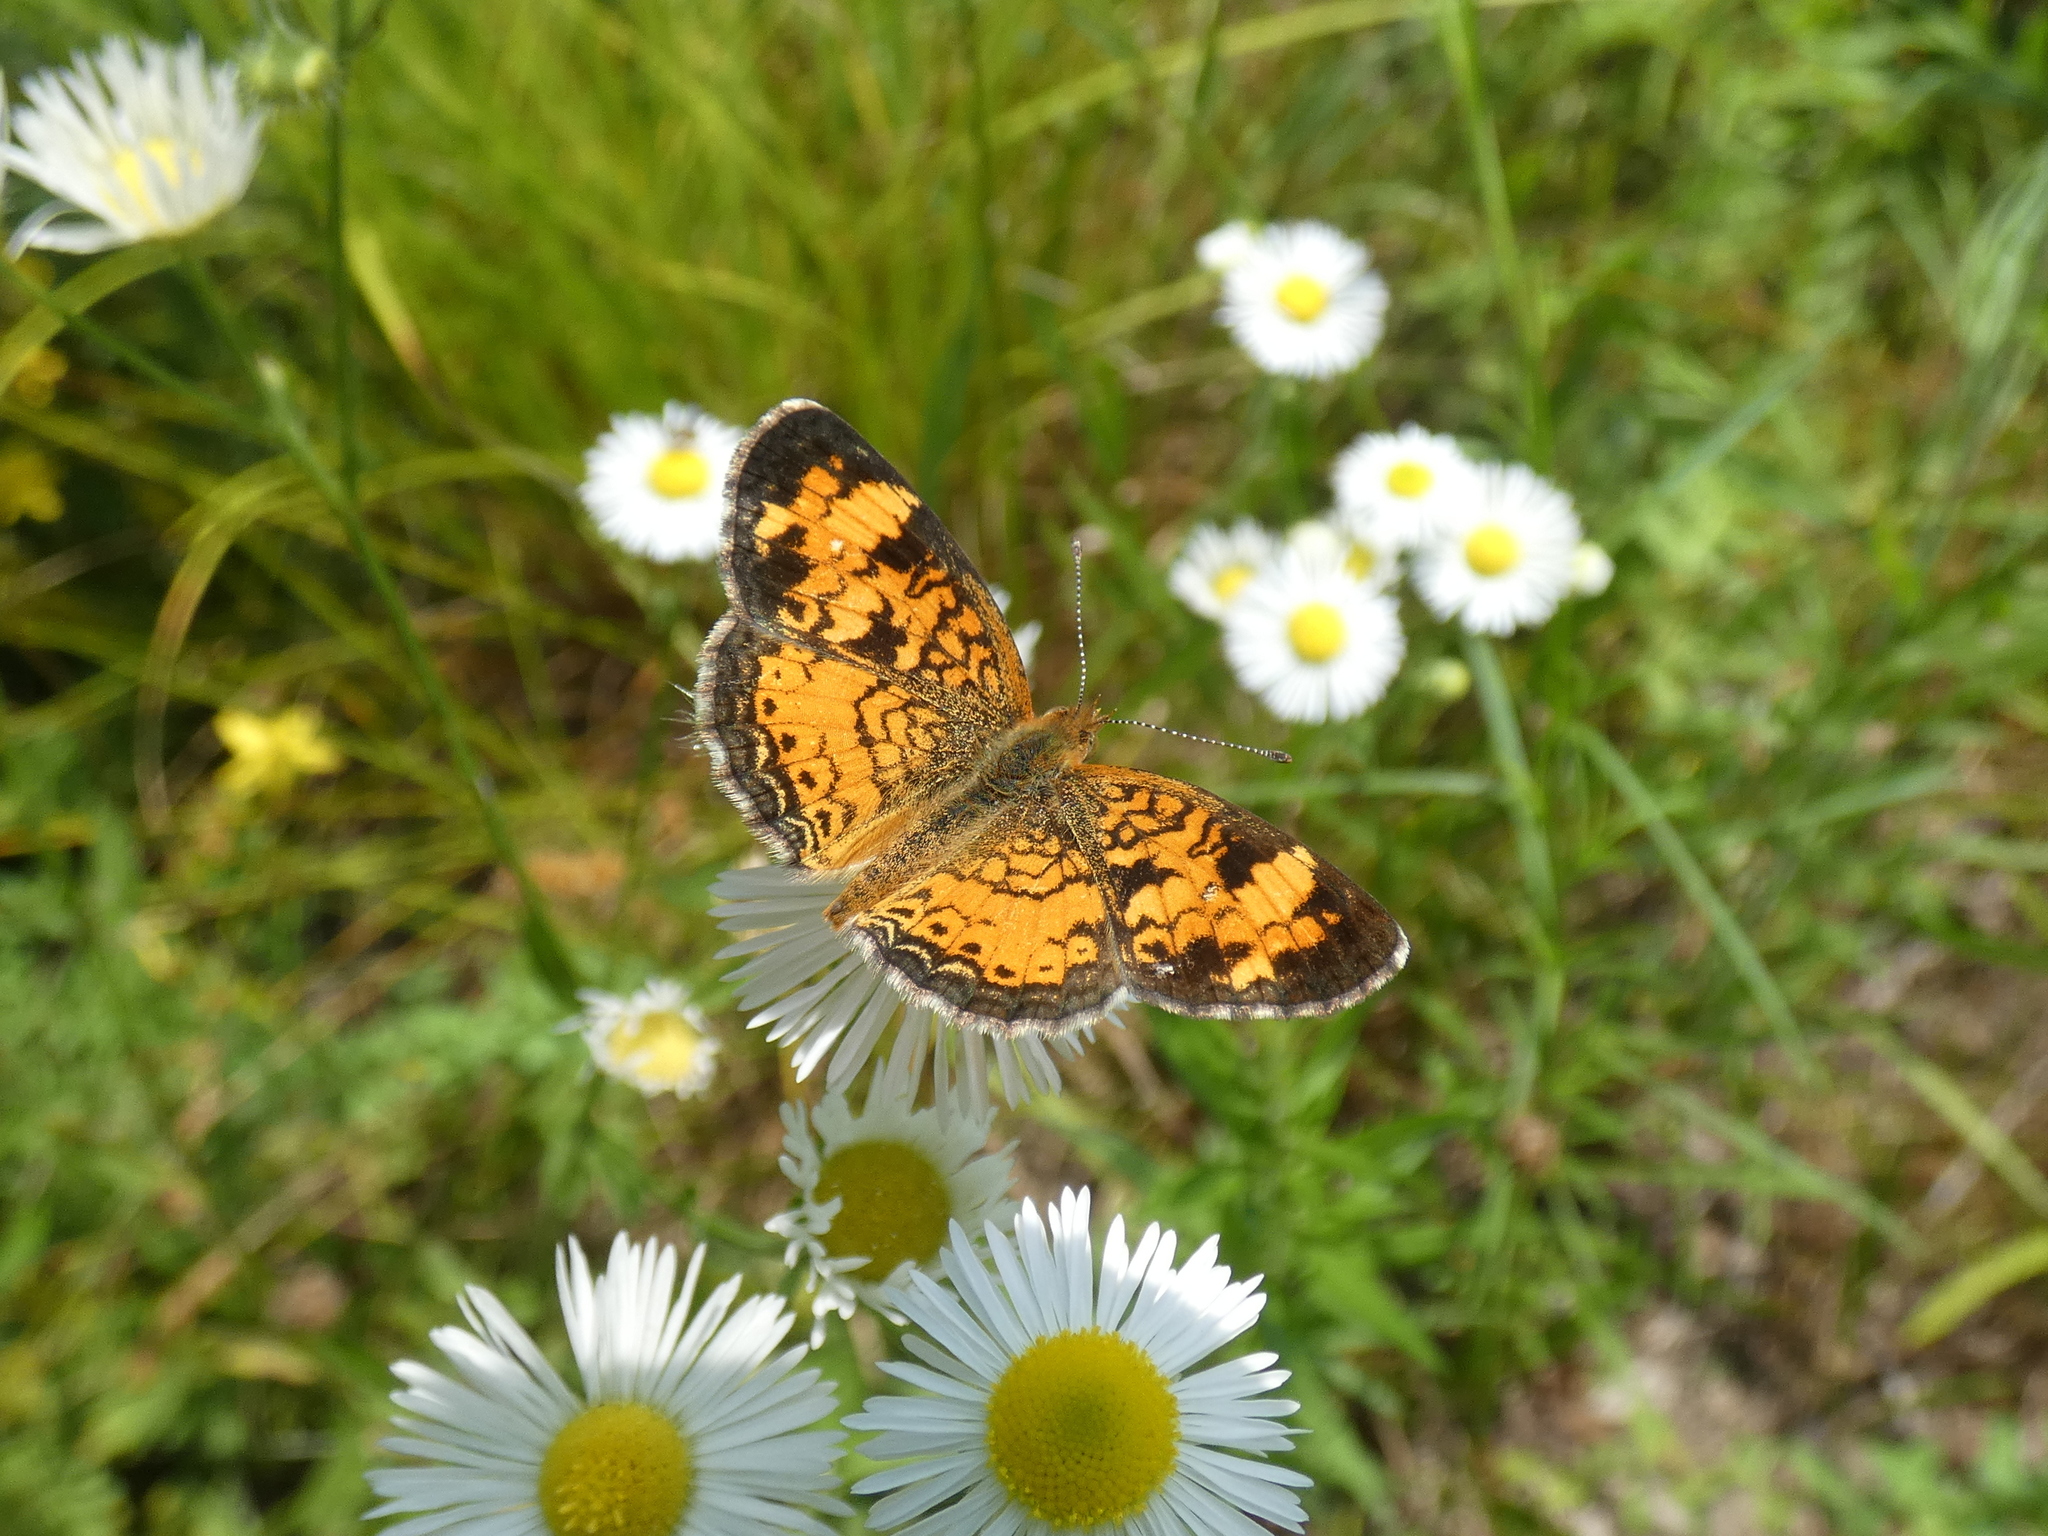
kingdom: Animalia
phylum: Arthropoda
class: Insecta
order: Lepidoptera
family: Nymphalidae
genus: Phyciodes
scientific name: Phyciodes tharos
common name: Pearl crescent
